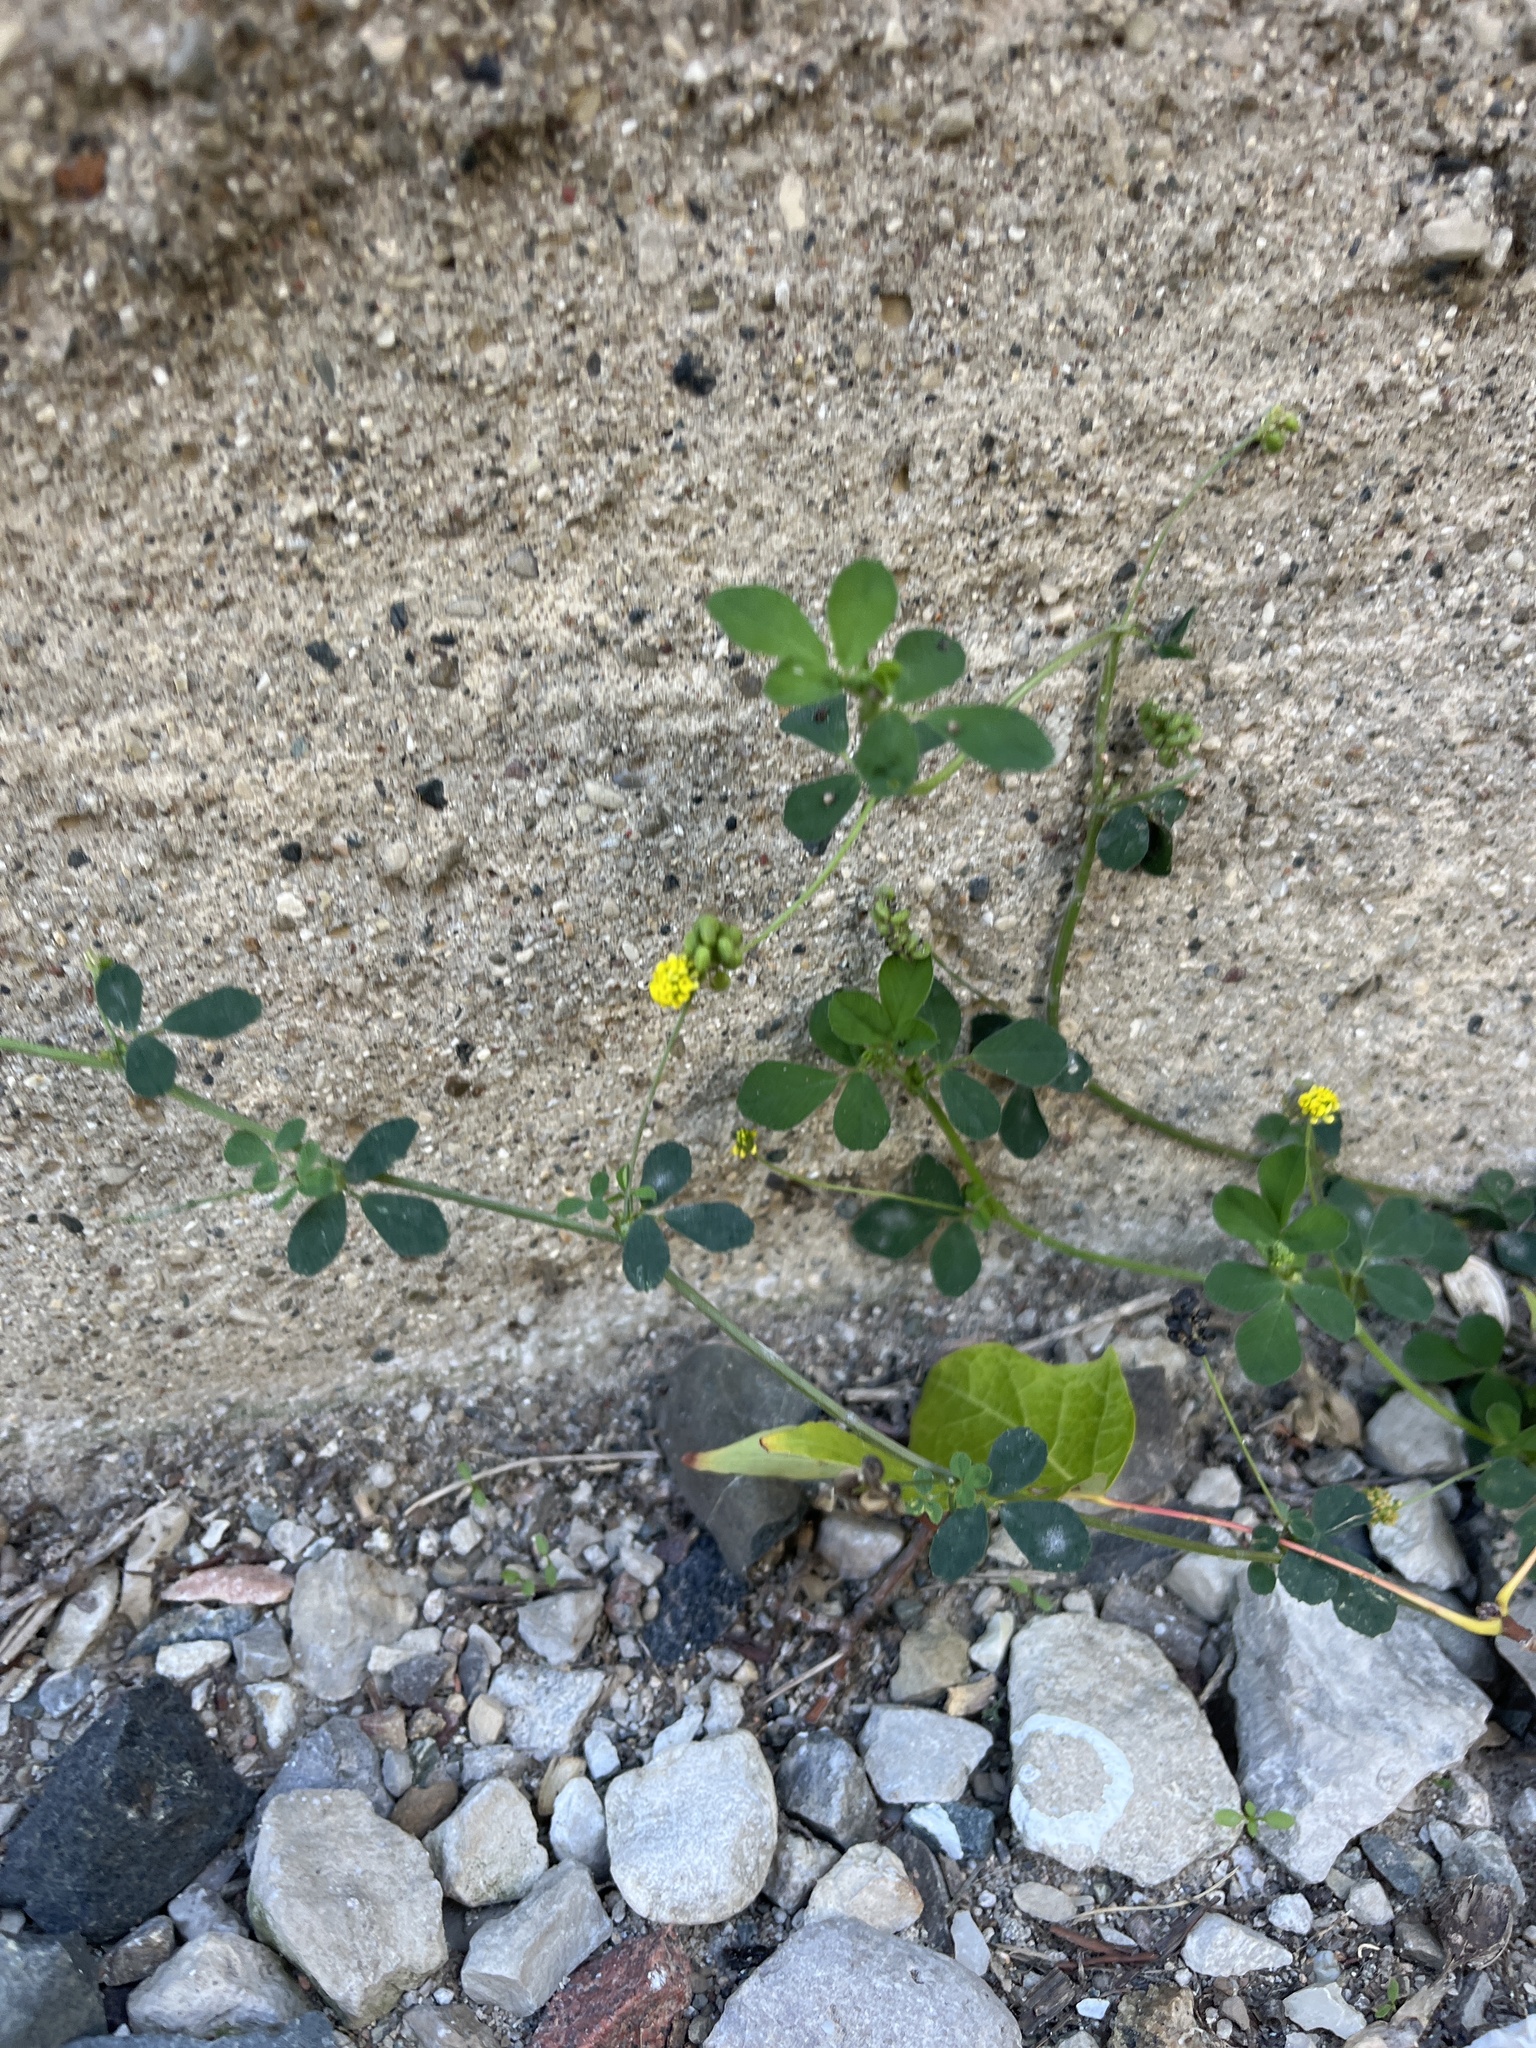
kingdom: Plantae
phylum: Tracheophyta
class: Magnoliopsida
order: Fabales
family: Fabaceae
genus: Medicago
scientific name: Medicago lupulina
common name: Black medick
